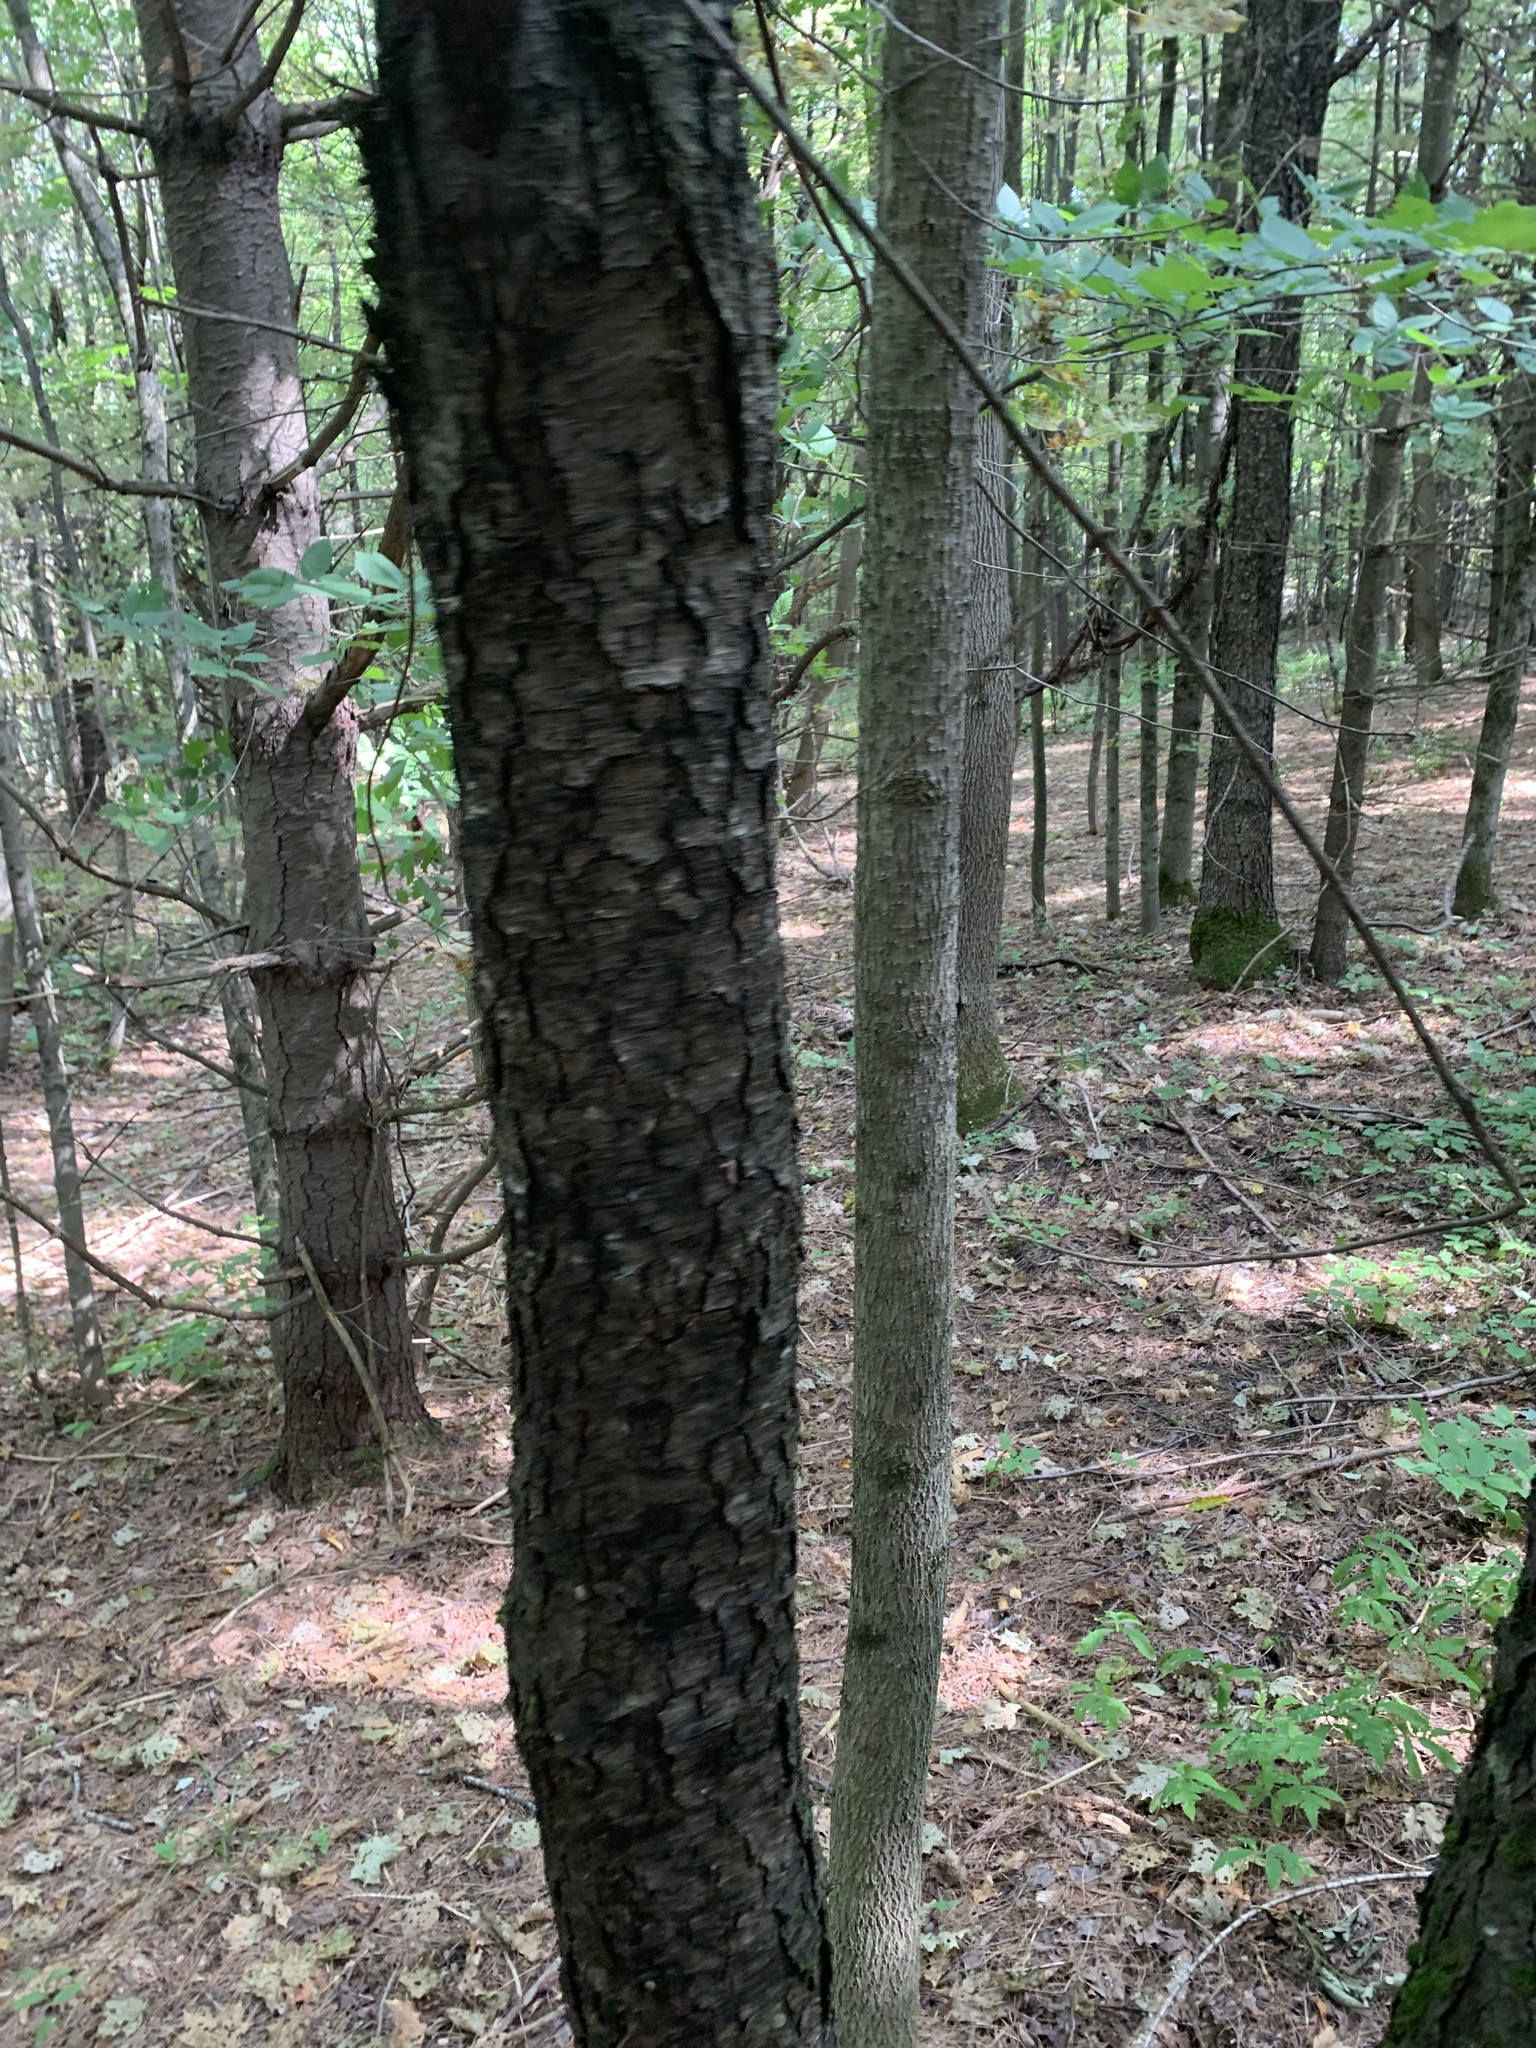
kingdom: Plantae
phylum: Tracheophyta
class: Magnoliopsida
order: Rosales
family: Rosaceae
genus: Prunus
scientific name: Prunus serotina
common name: Black cherry
